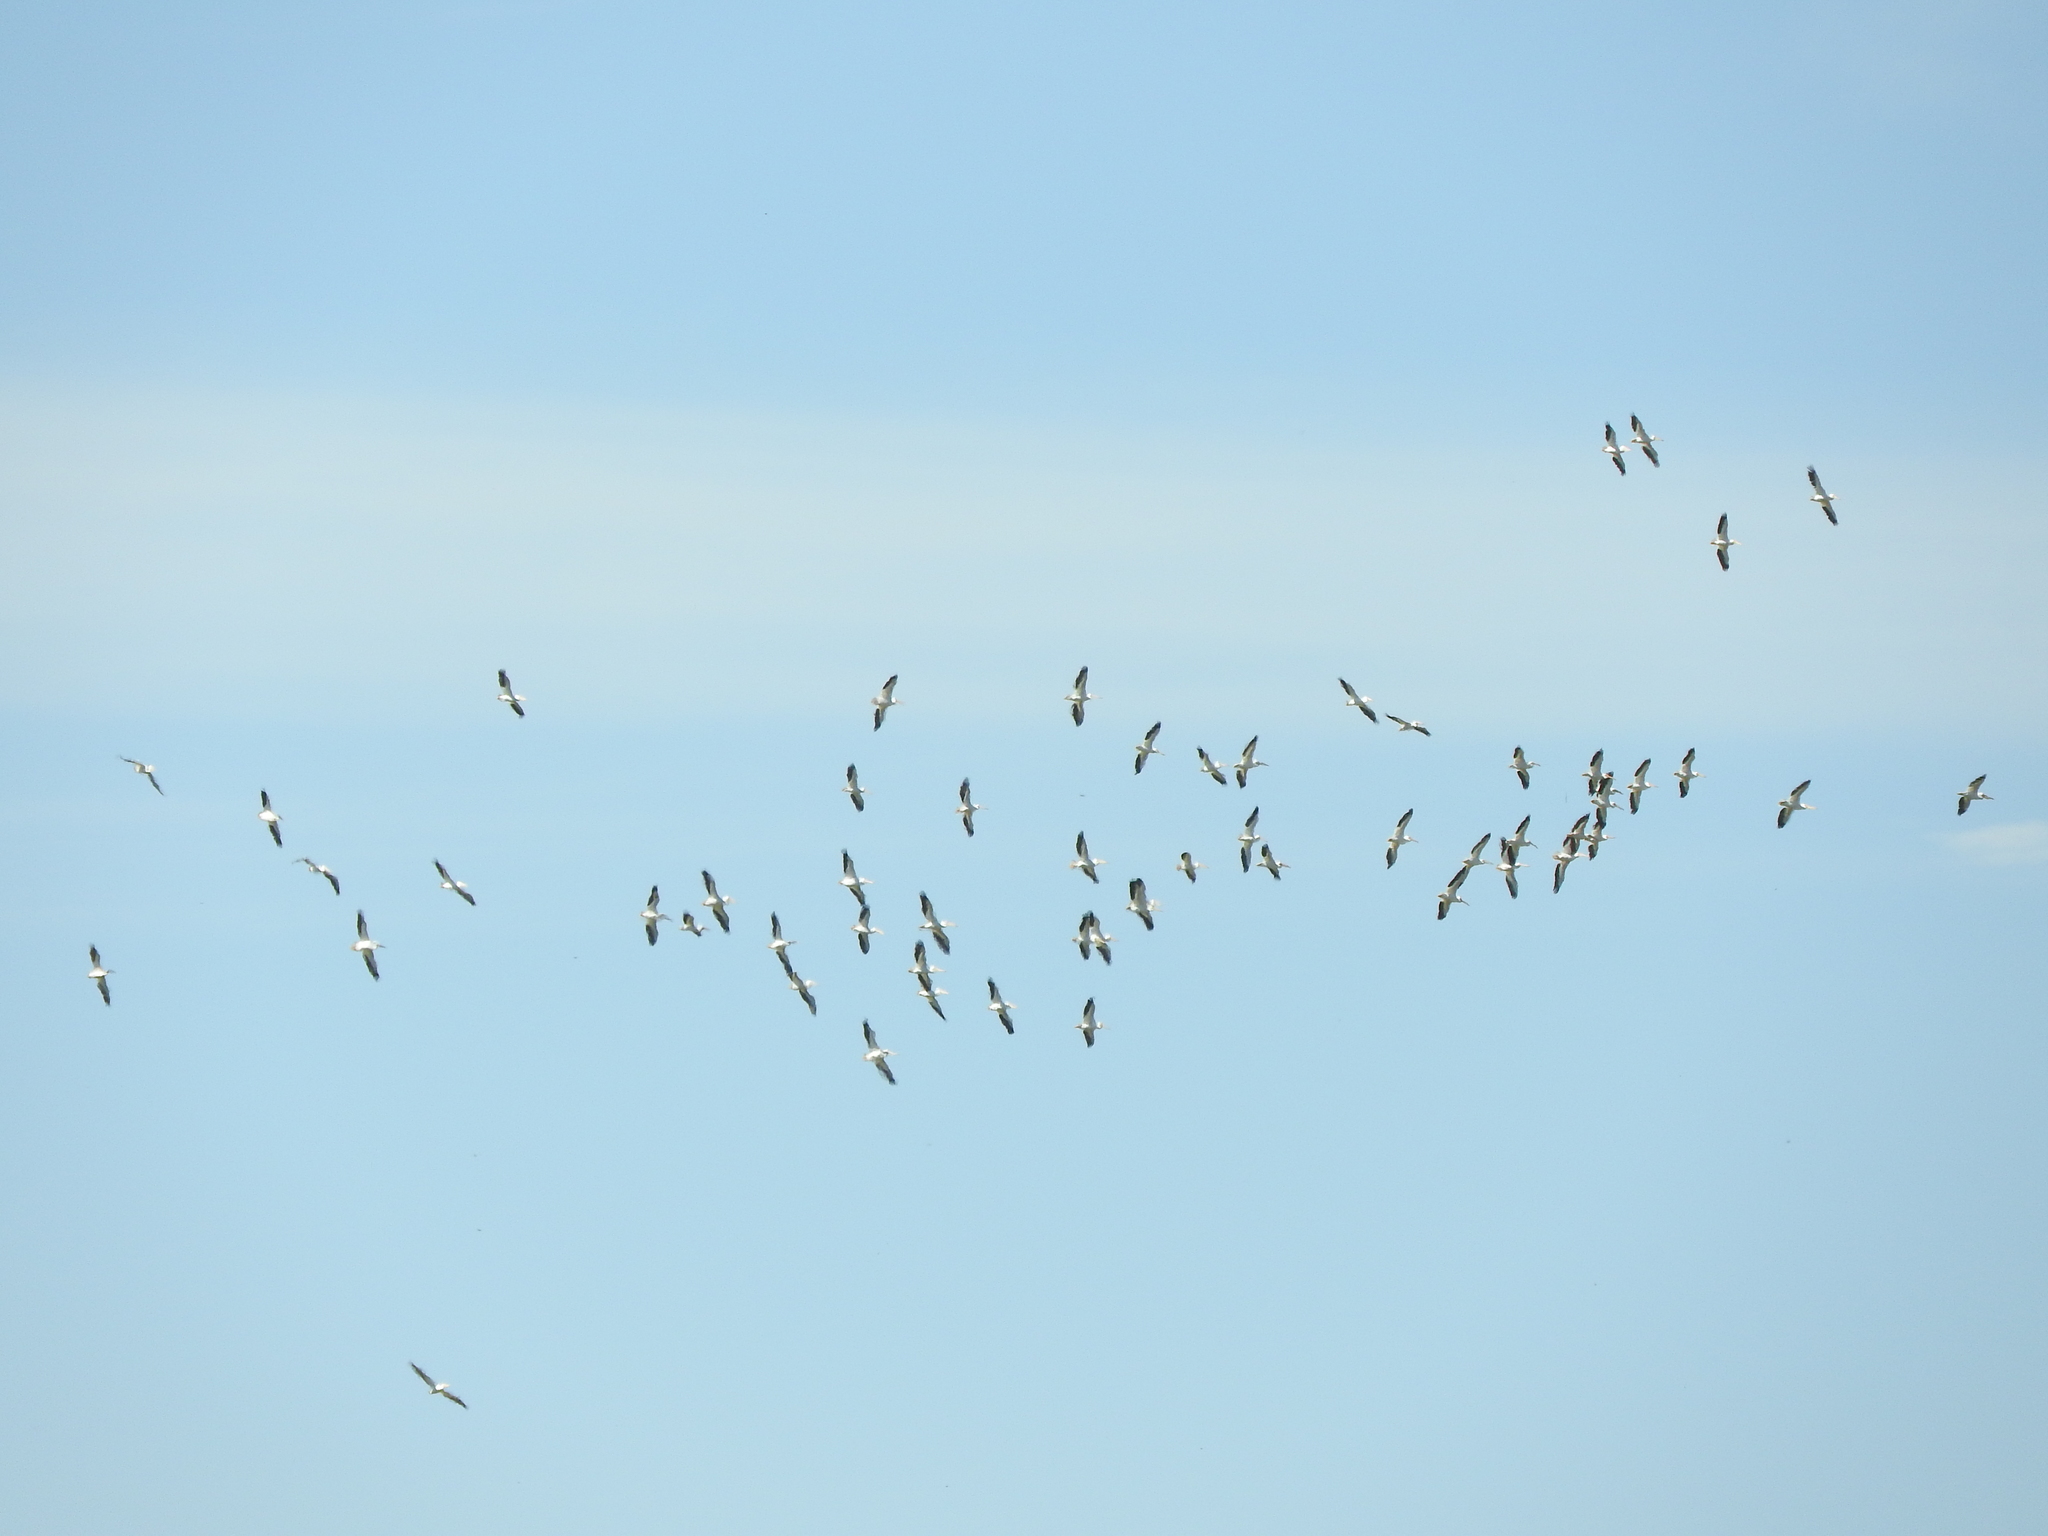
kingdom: Animalia
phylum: Chordata
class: Aves
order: Pelecaniformes
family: Pelecanidae
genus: Pelecanus
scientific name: Pelecanus erythrorhynchos
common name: American white pelican
